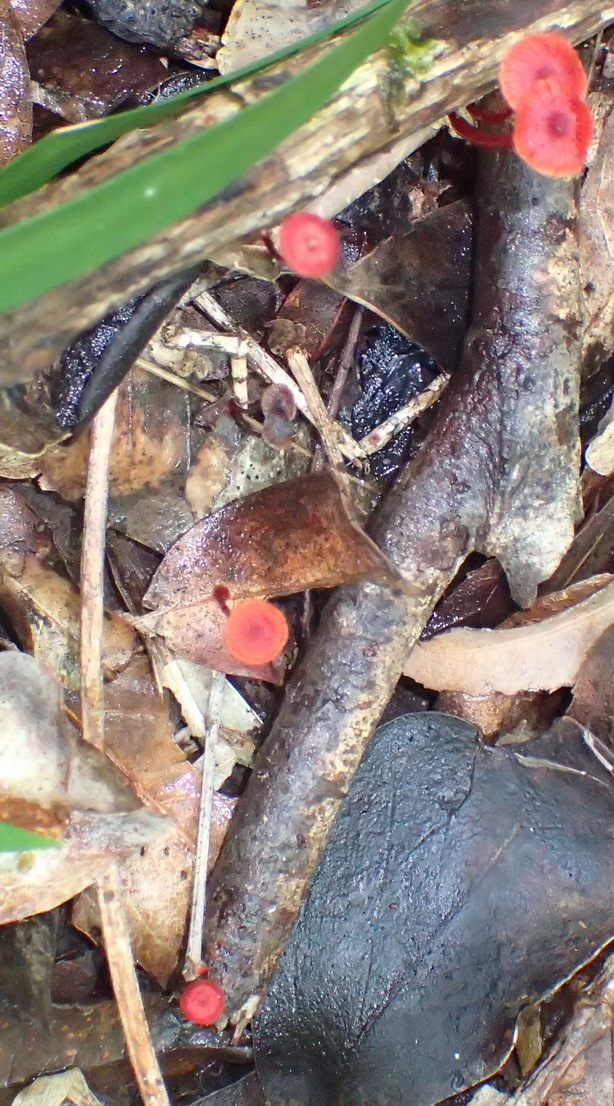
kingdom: Fungi
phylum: Basidiomycota
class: Agaricomycetes
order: Agaricales
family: Mycenaceae
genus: Cruentomycena
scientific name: Cruentomycena viscidocruenta
